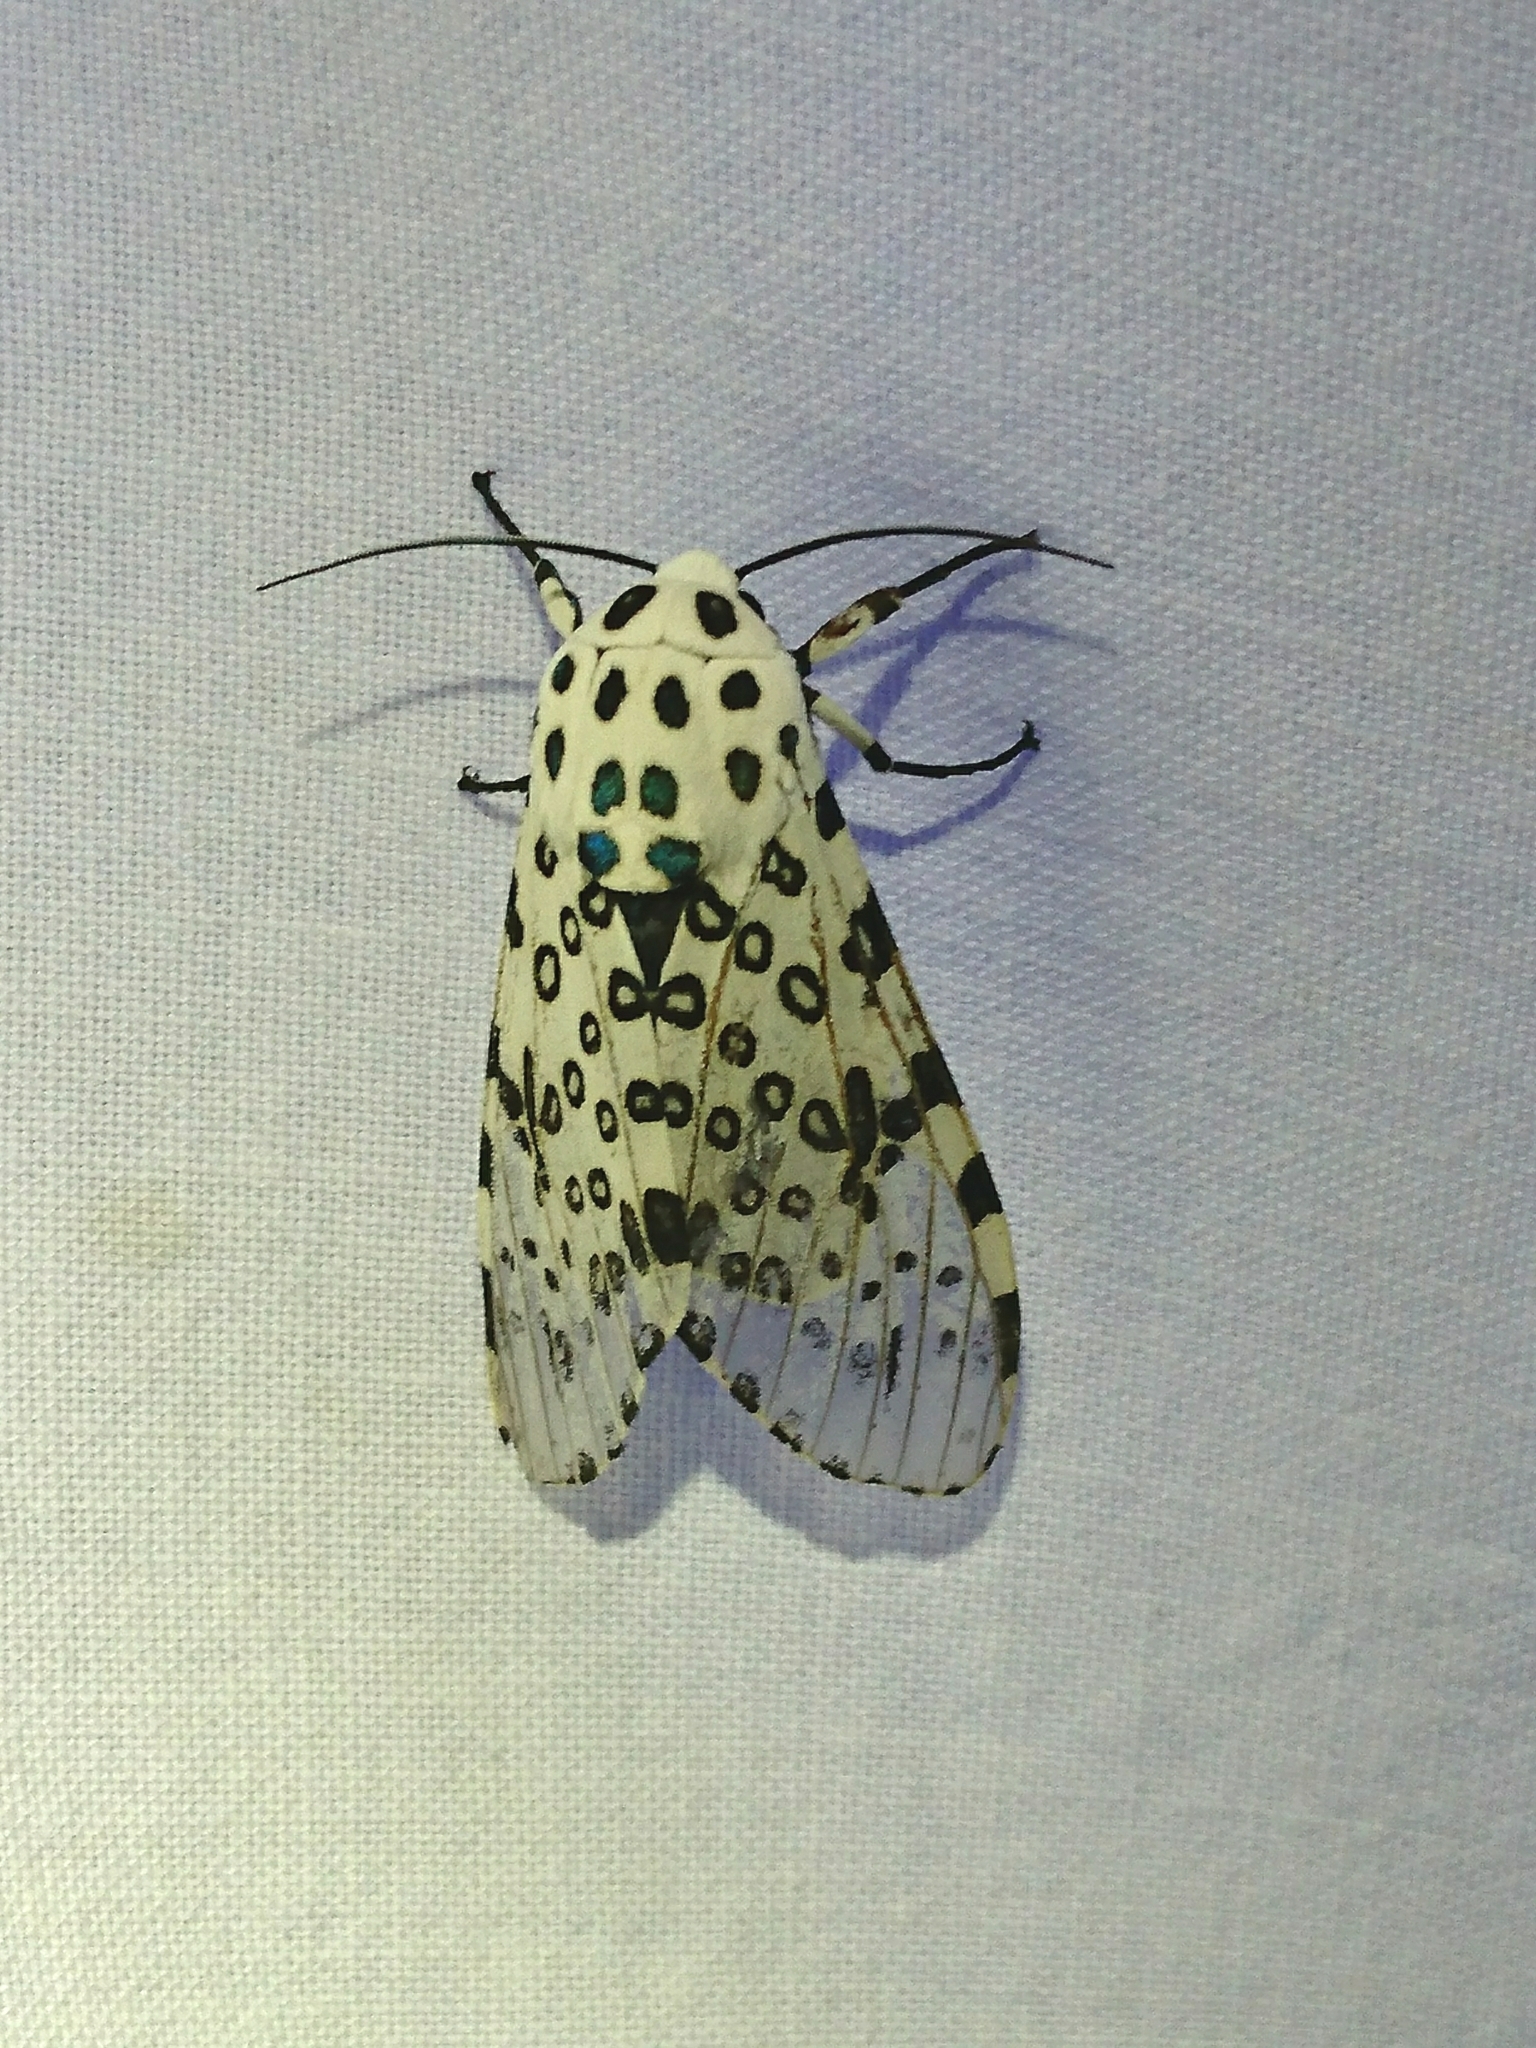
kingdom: Animalia
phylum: Arthropoda
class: Insecta
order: Lepidoptera
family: Erebidae
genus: Hypercompe
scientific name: Hypercompe scribonia
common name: Giant leopard moth
